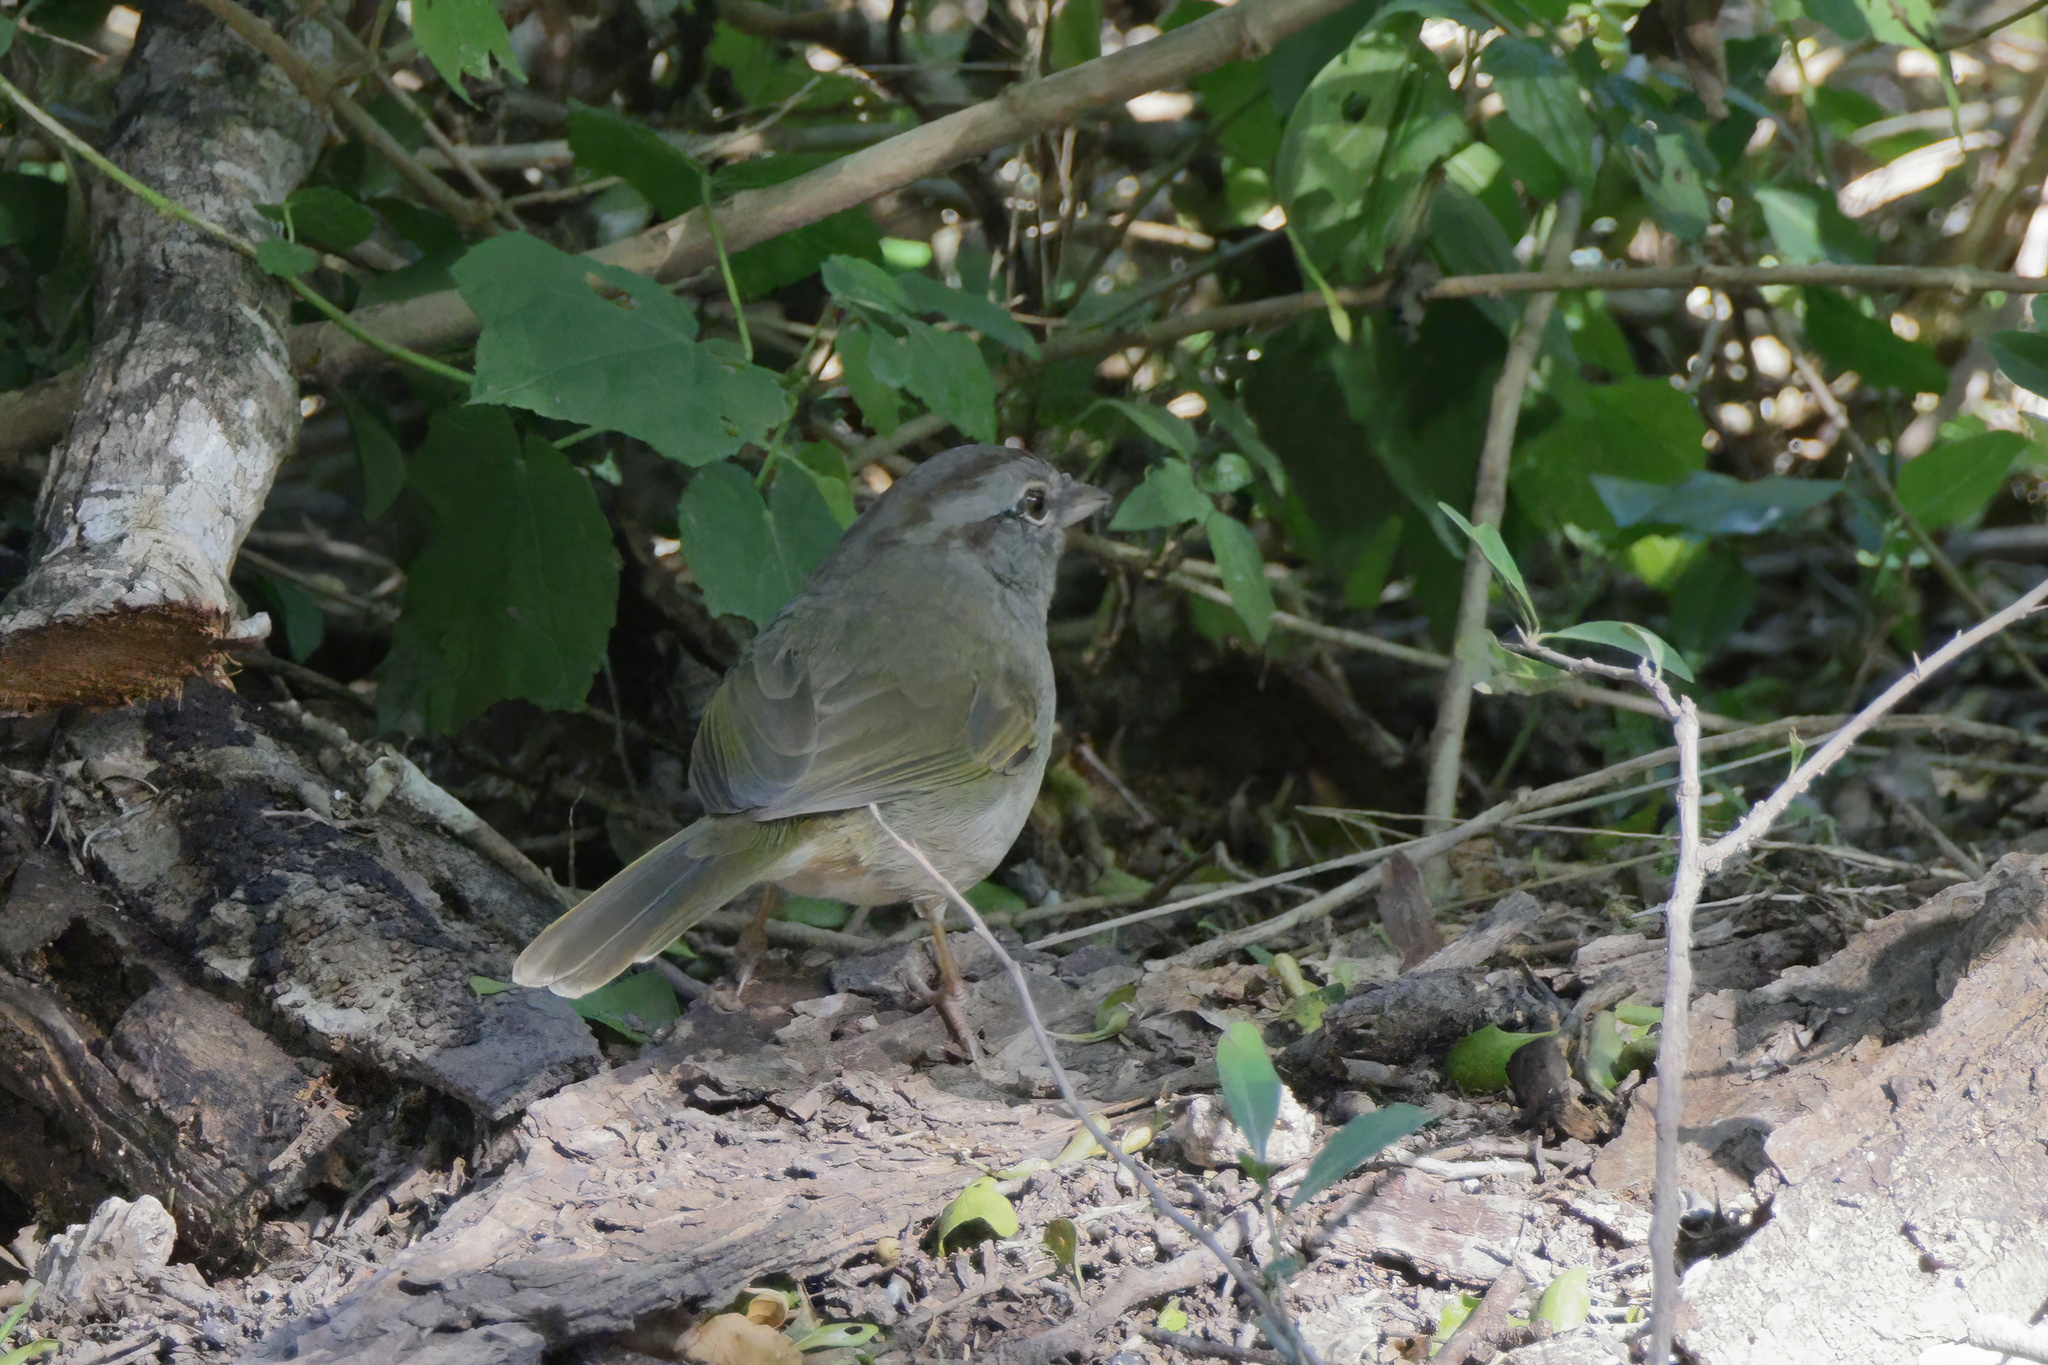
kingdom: Animalia
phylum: Chordata
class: Aves
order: Passeriformes
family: Passerellidae
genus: Arremonops
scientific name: Arremonops rufivirgatus
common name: Olive sparrow
